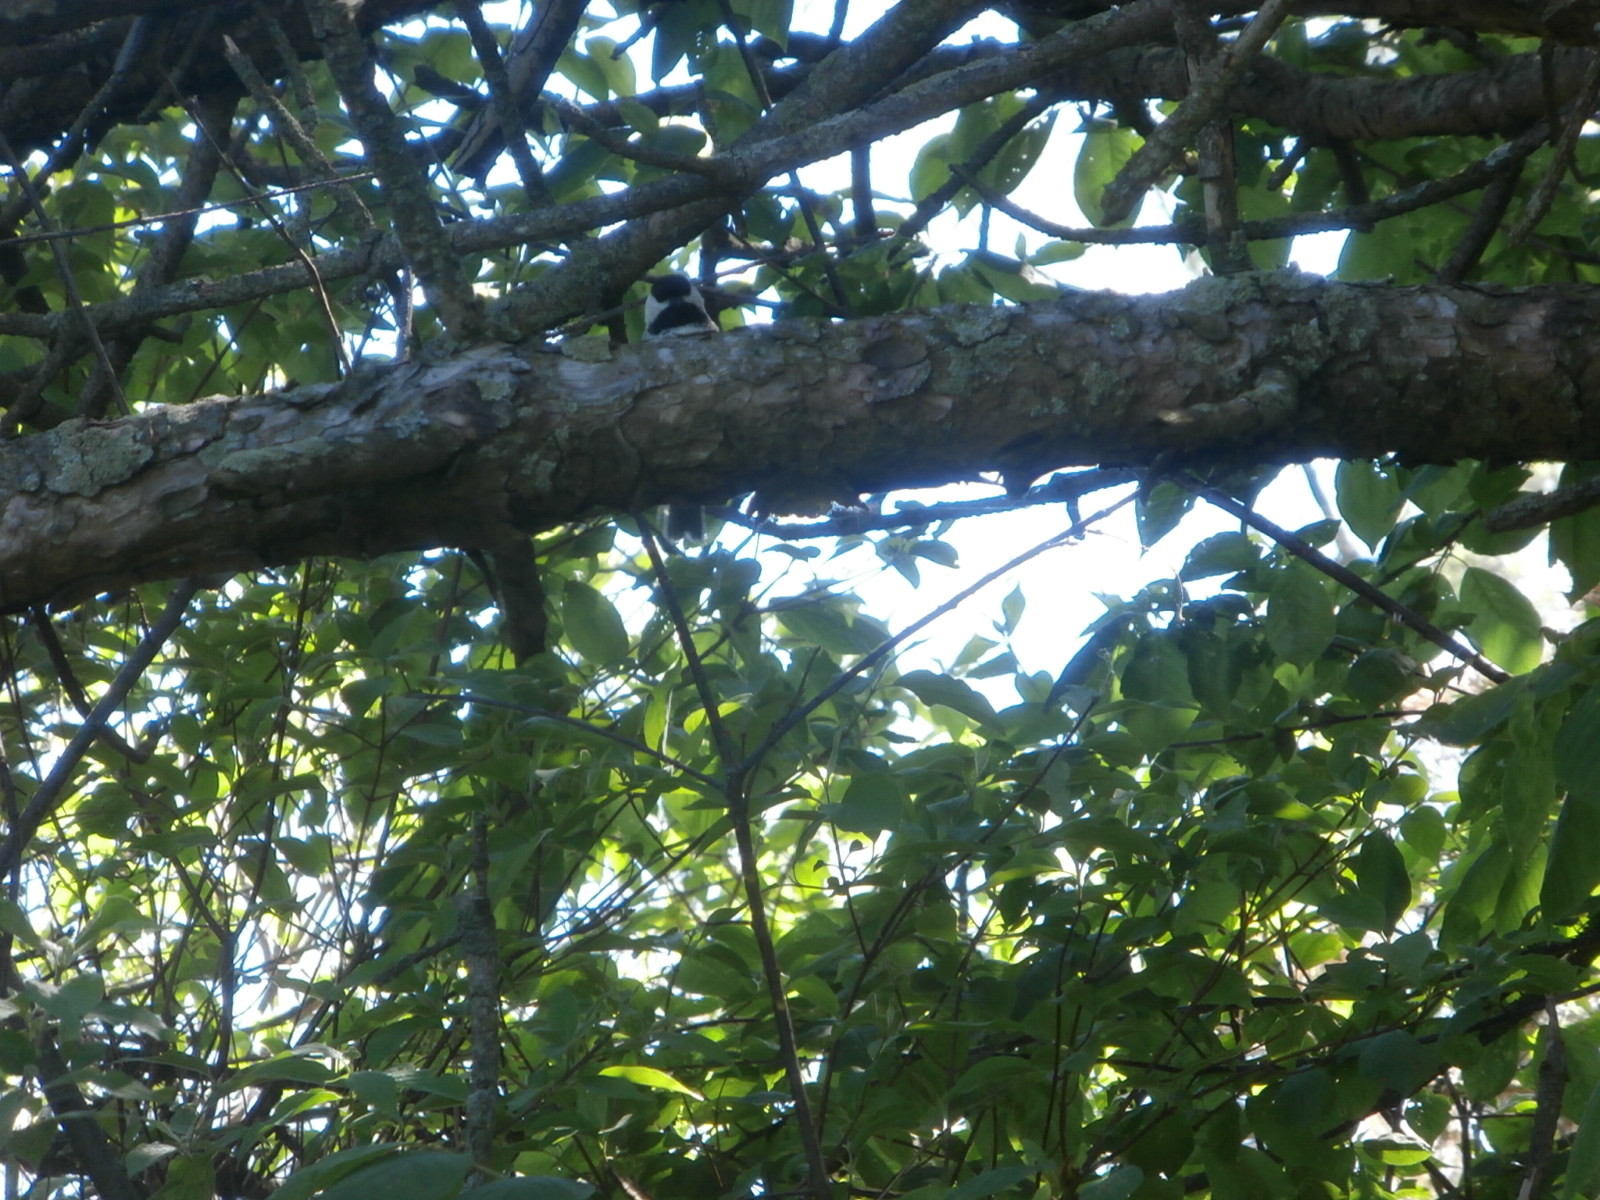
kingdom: Animalia
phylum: Chordata
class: Aves
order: Passeriformes
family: Paridae
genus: Poecile
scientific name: Poecile atricapillus
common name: Black-capped chickadee
